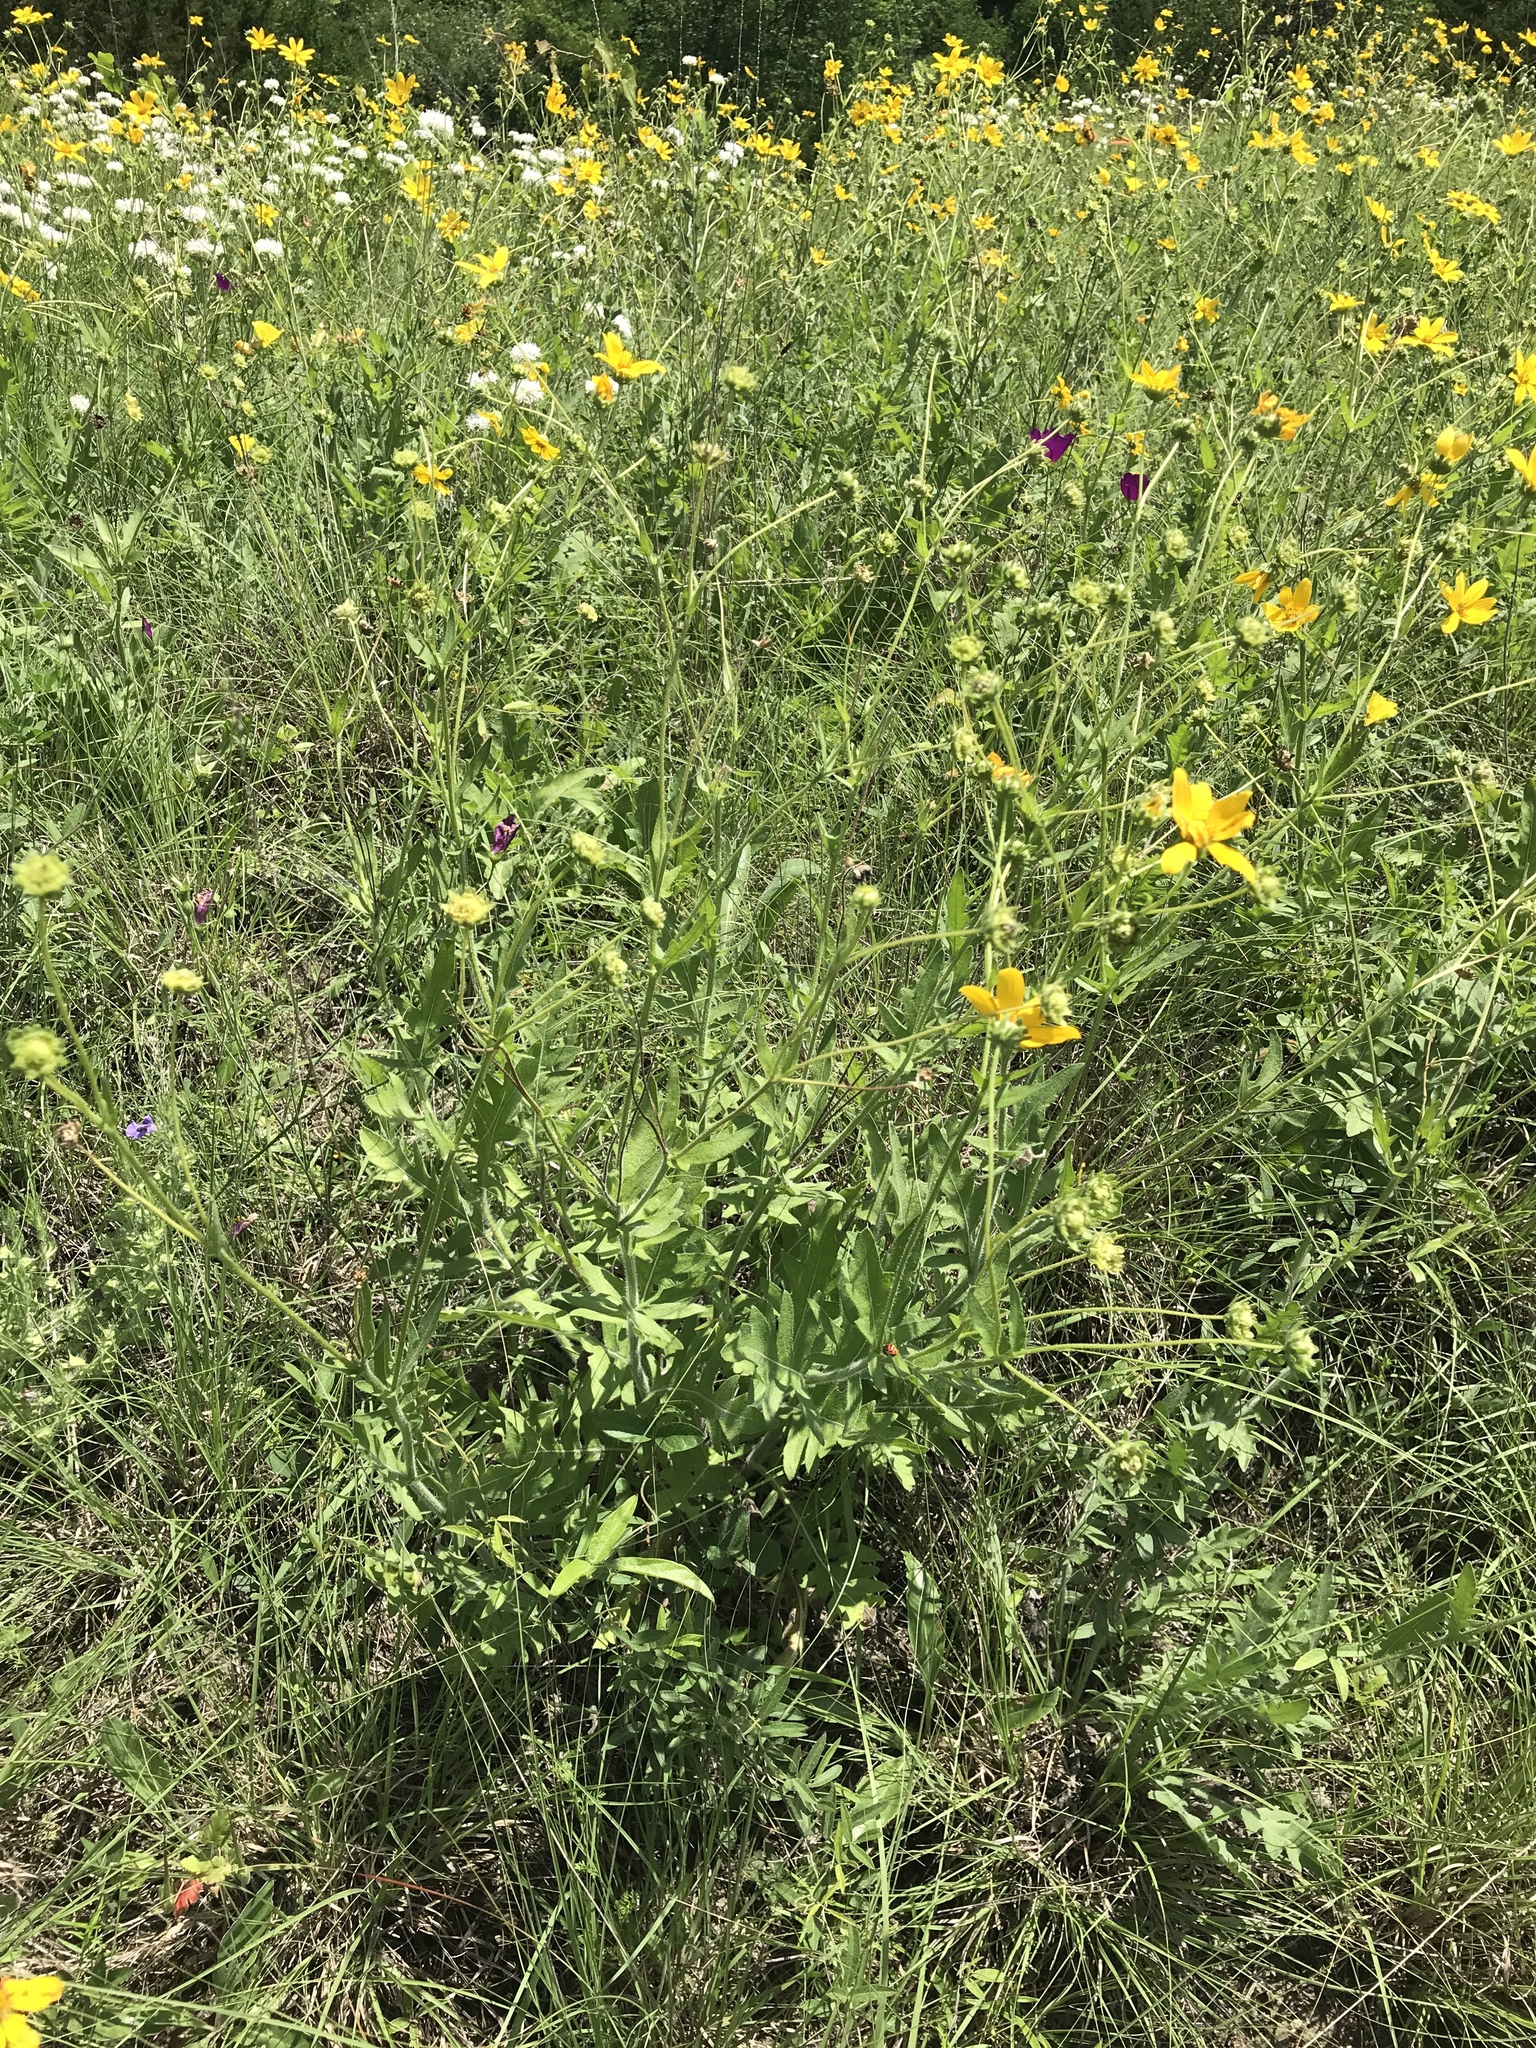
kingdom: Plantae
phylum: Tracheophyta
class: Magnoliopsida
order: Asterales
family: Asteraceae
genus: Engelmannia
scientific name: Engelmannia peristenia
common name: Engelmann's daisy
